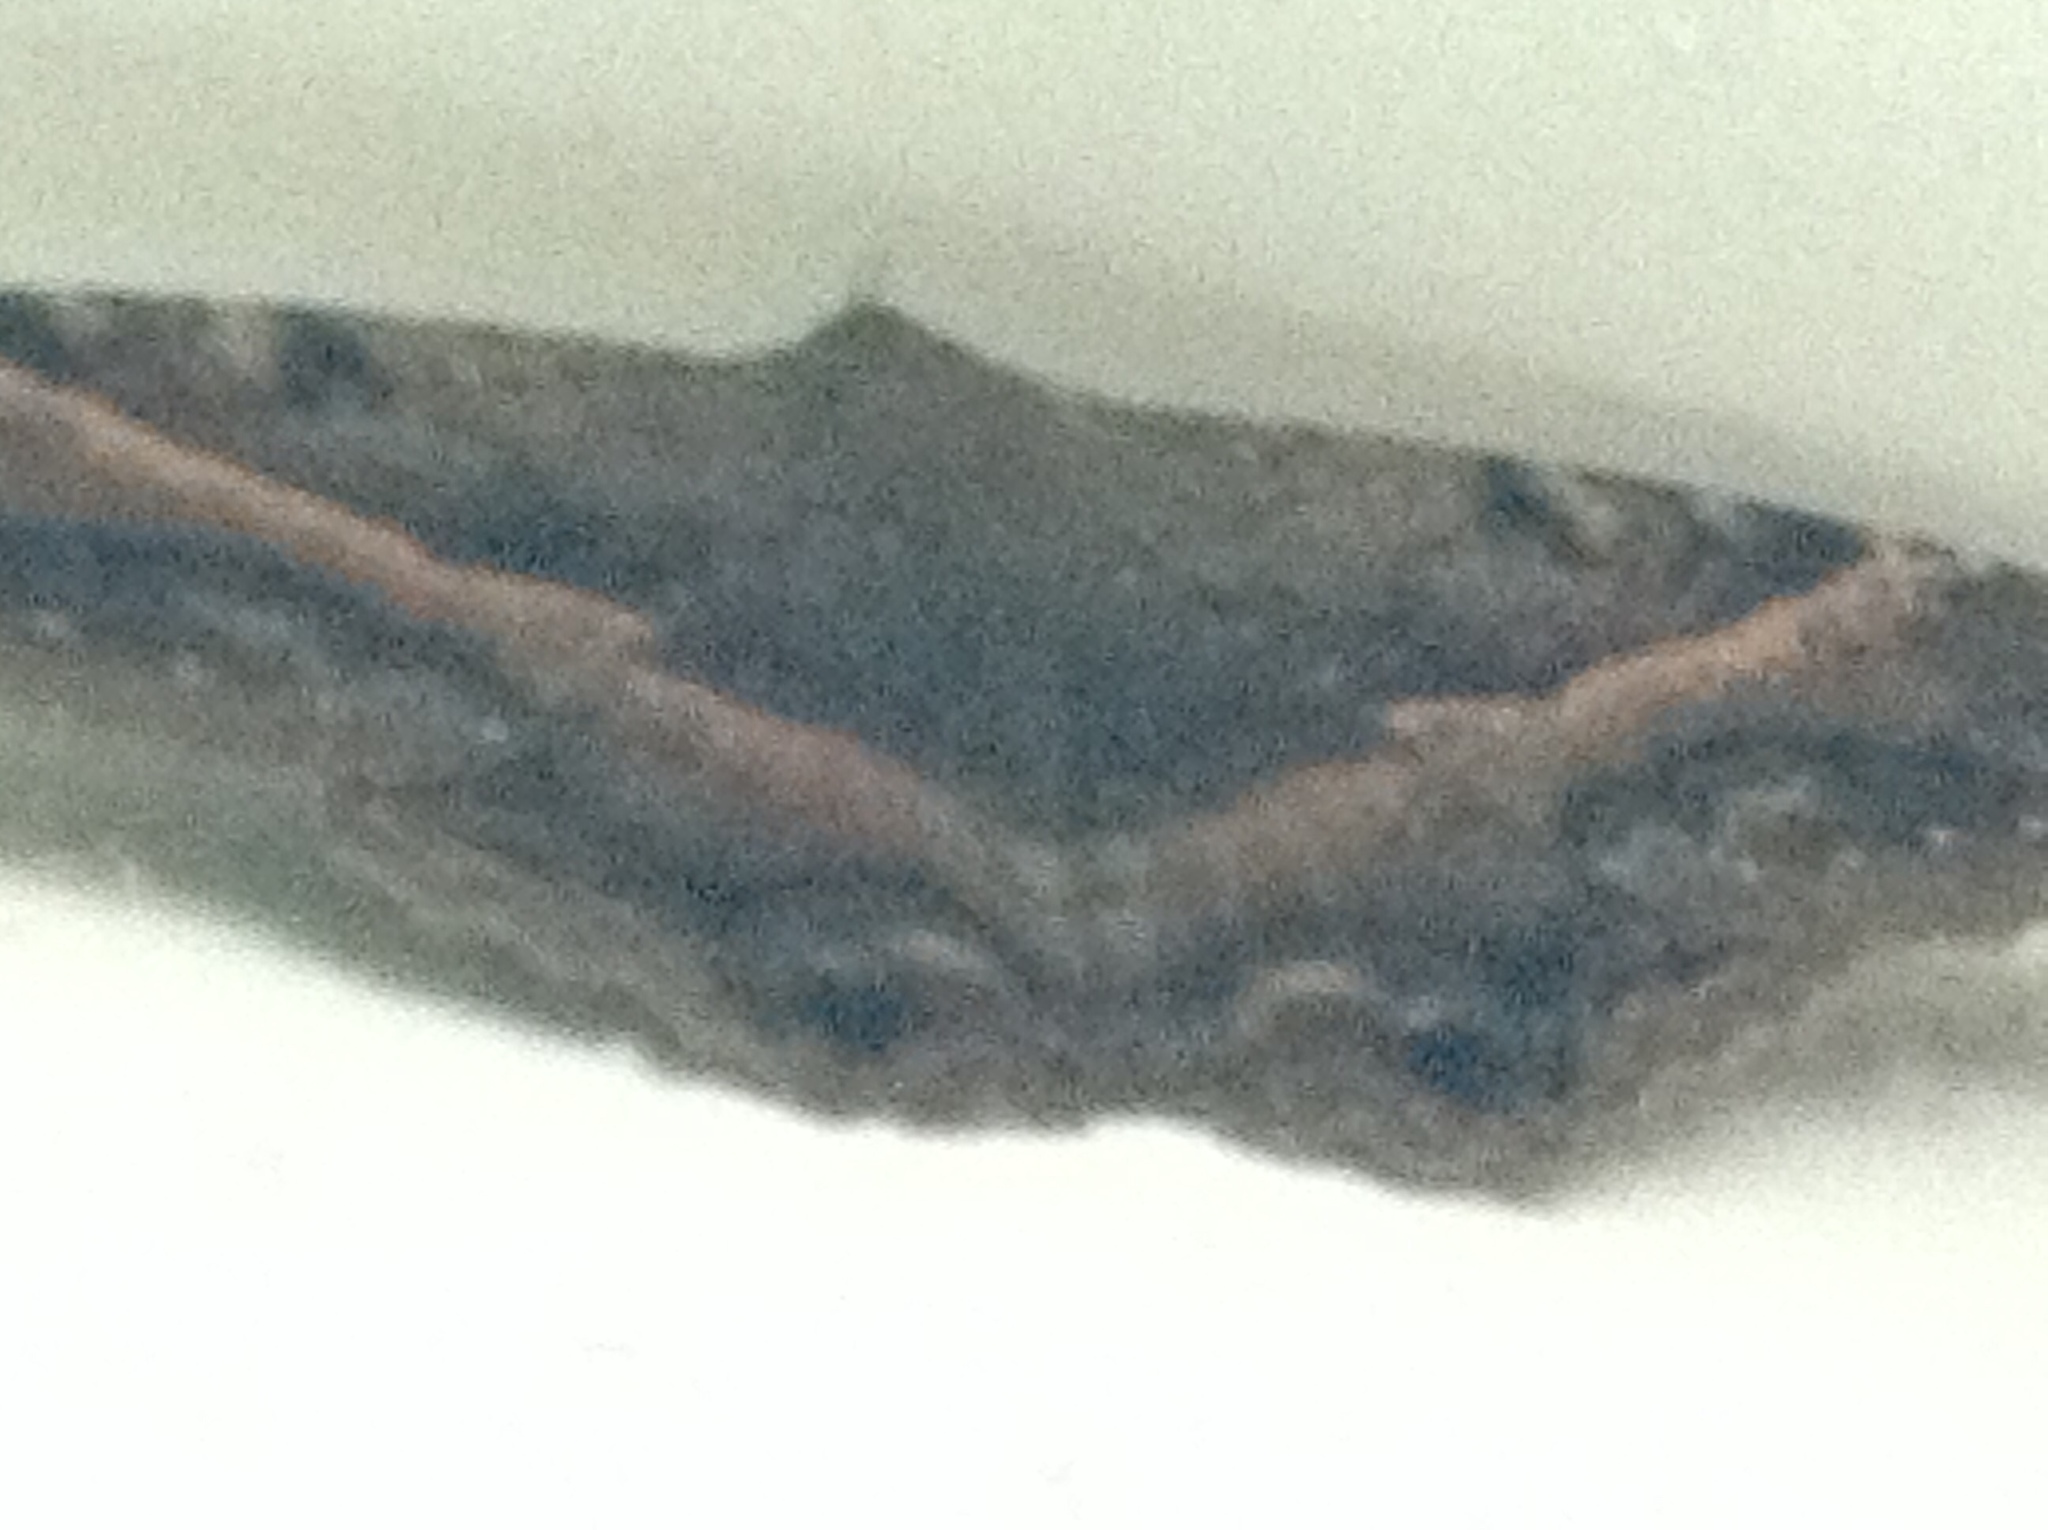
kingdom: Animalia
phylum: Arthropoda
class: Insecta
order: Lepidoptera
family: Erebidae
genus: Ascalapha
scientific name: Ascalapha odorata
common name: Black witch
